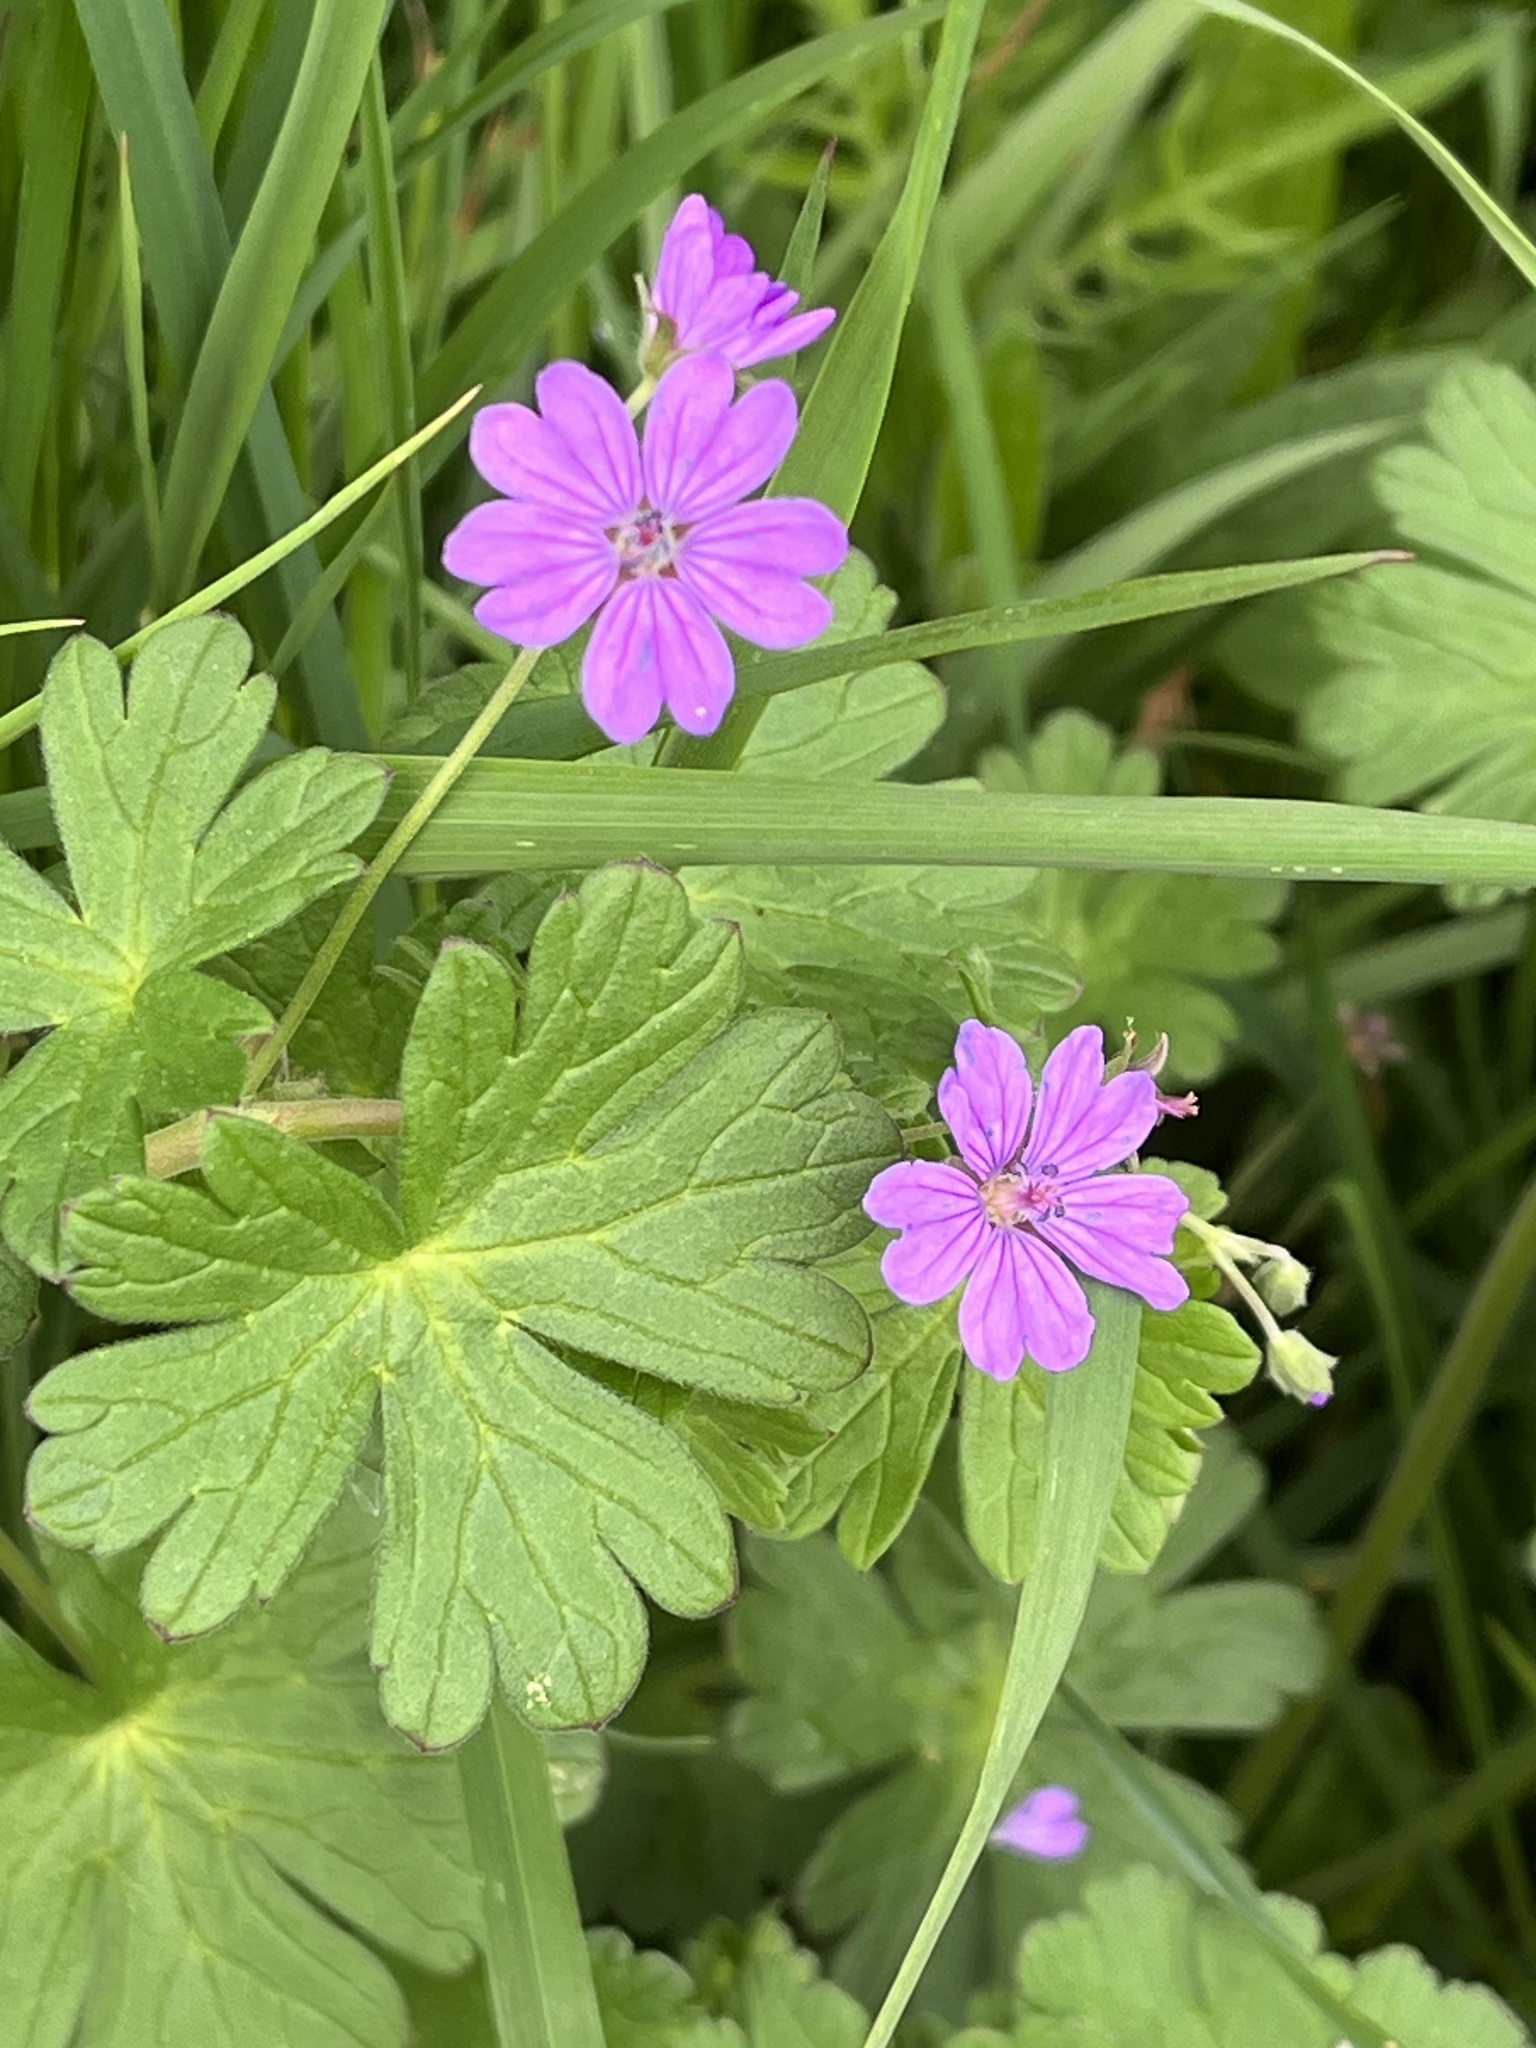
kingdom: Plantae
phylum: Tracheophyta
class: Magnoliopsida
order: Geraniales
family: Geraniaceae
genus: Geranium
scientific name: Geranium pyrenaicum
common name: Hedgerow crane's-bill
